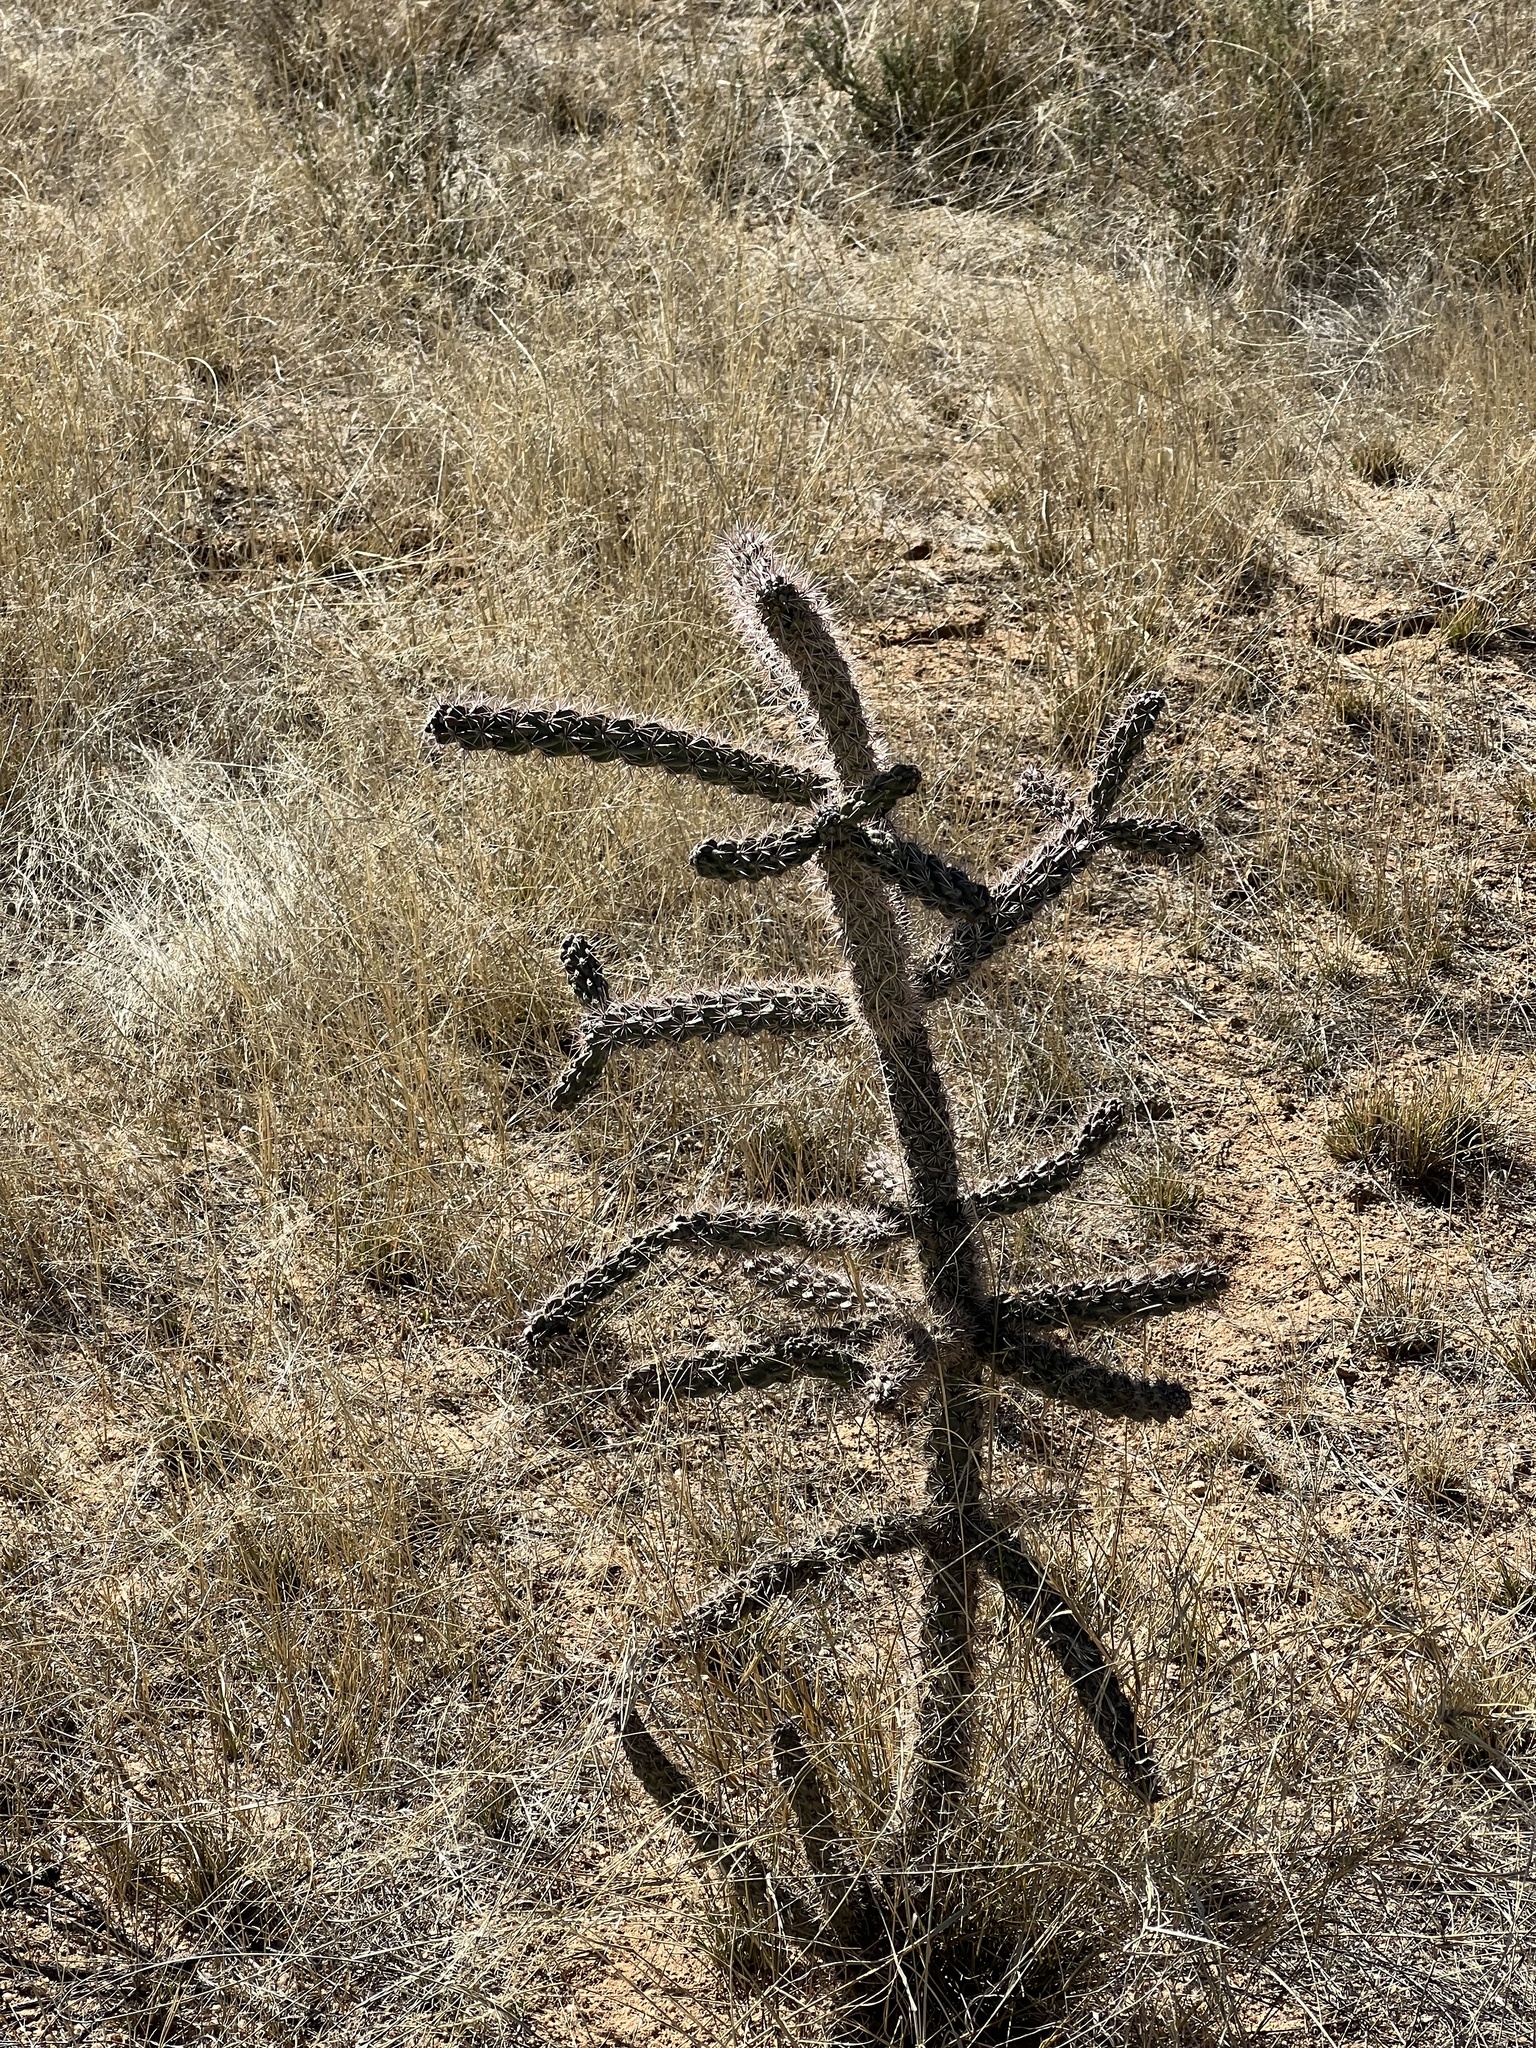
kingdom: Plantae
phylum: Tracheophyta
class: Magnoliopsida
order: Caryophyllales
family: Cactaceae
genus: Cylindropuntia
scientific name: Cylindropuntia imbricata
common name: Candelabrum cactus
